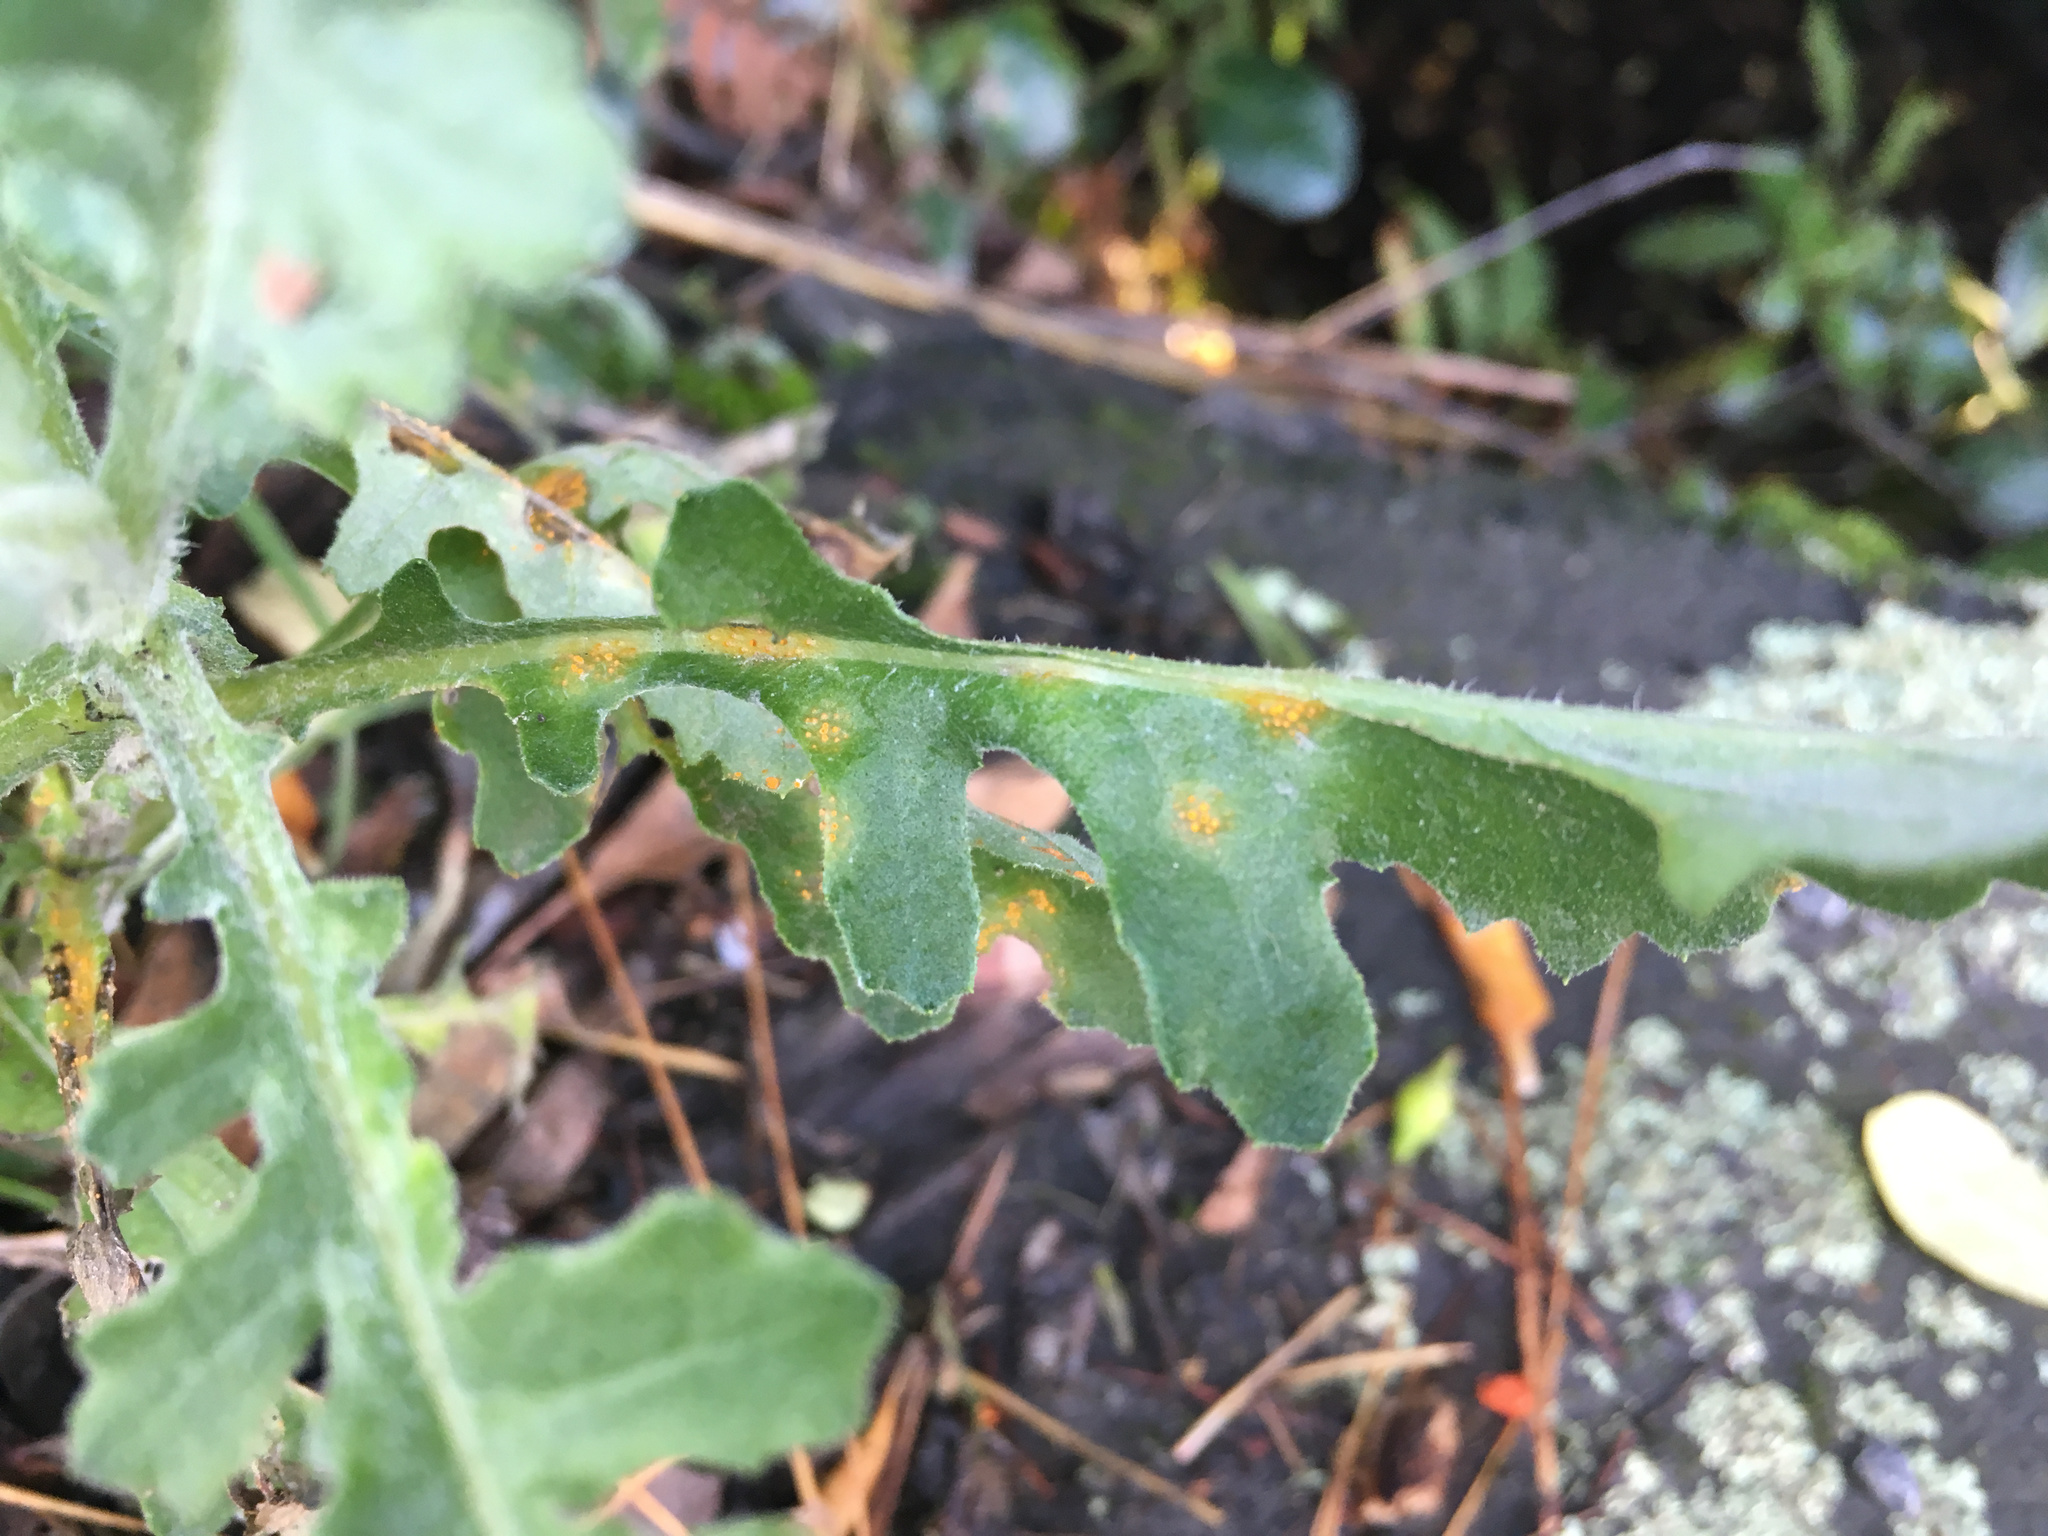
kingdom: Fungi
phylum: Basidiomycota
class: Pucciniomycetes
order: Pucciniales
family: Pucciniaceae
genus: Puccinia
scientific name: Puccinia lagenophorae
